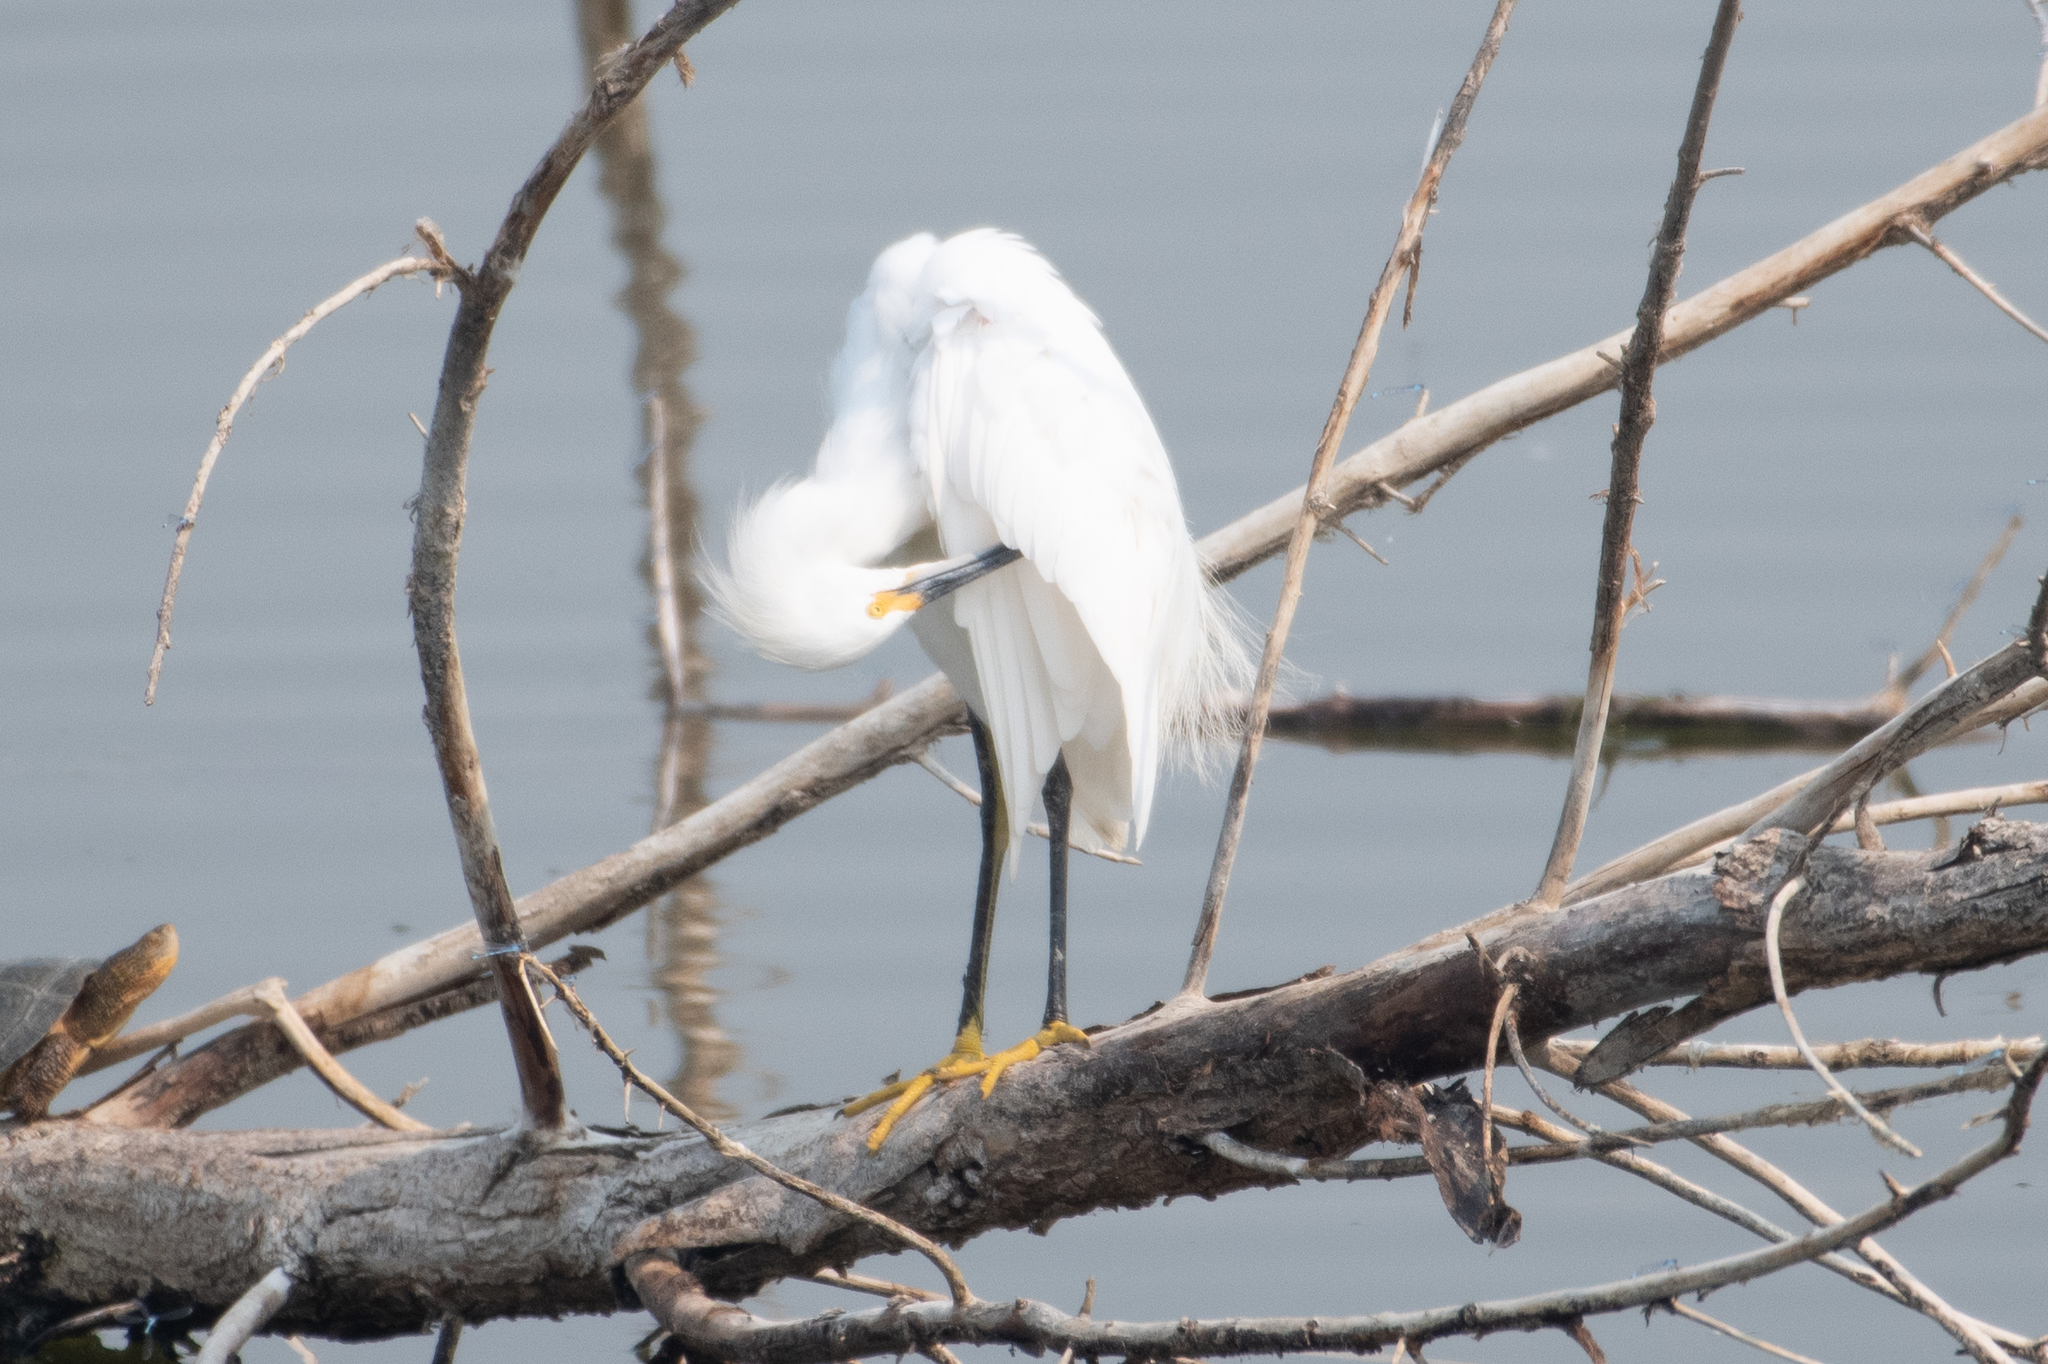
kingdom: Animalia
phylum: Chordata
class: Aves
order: Pelecaniformes
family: Ardeidae
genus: Egretta
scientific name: Egretta thula
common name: Snowy egret
